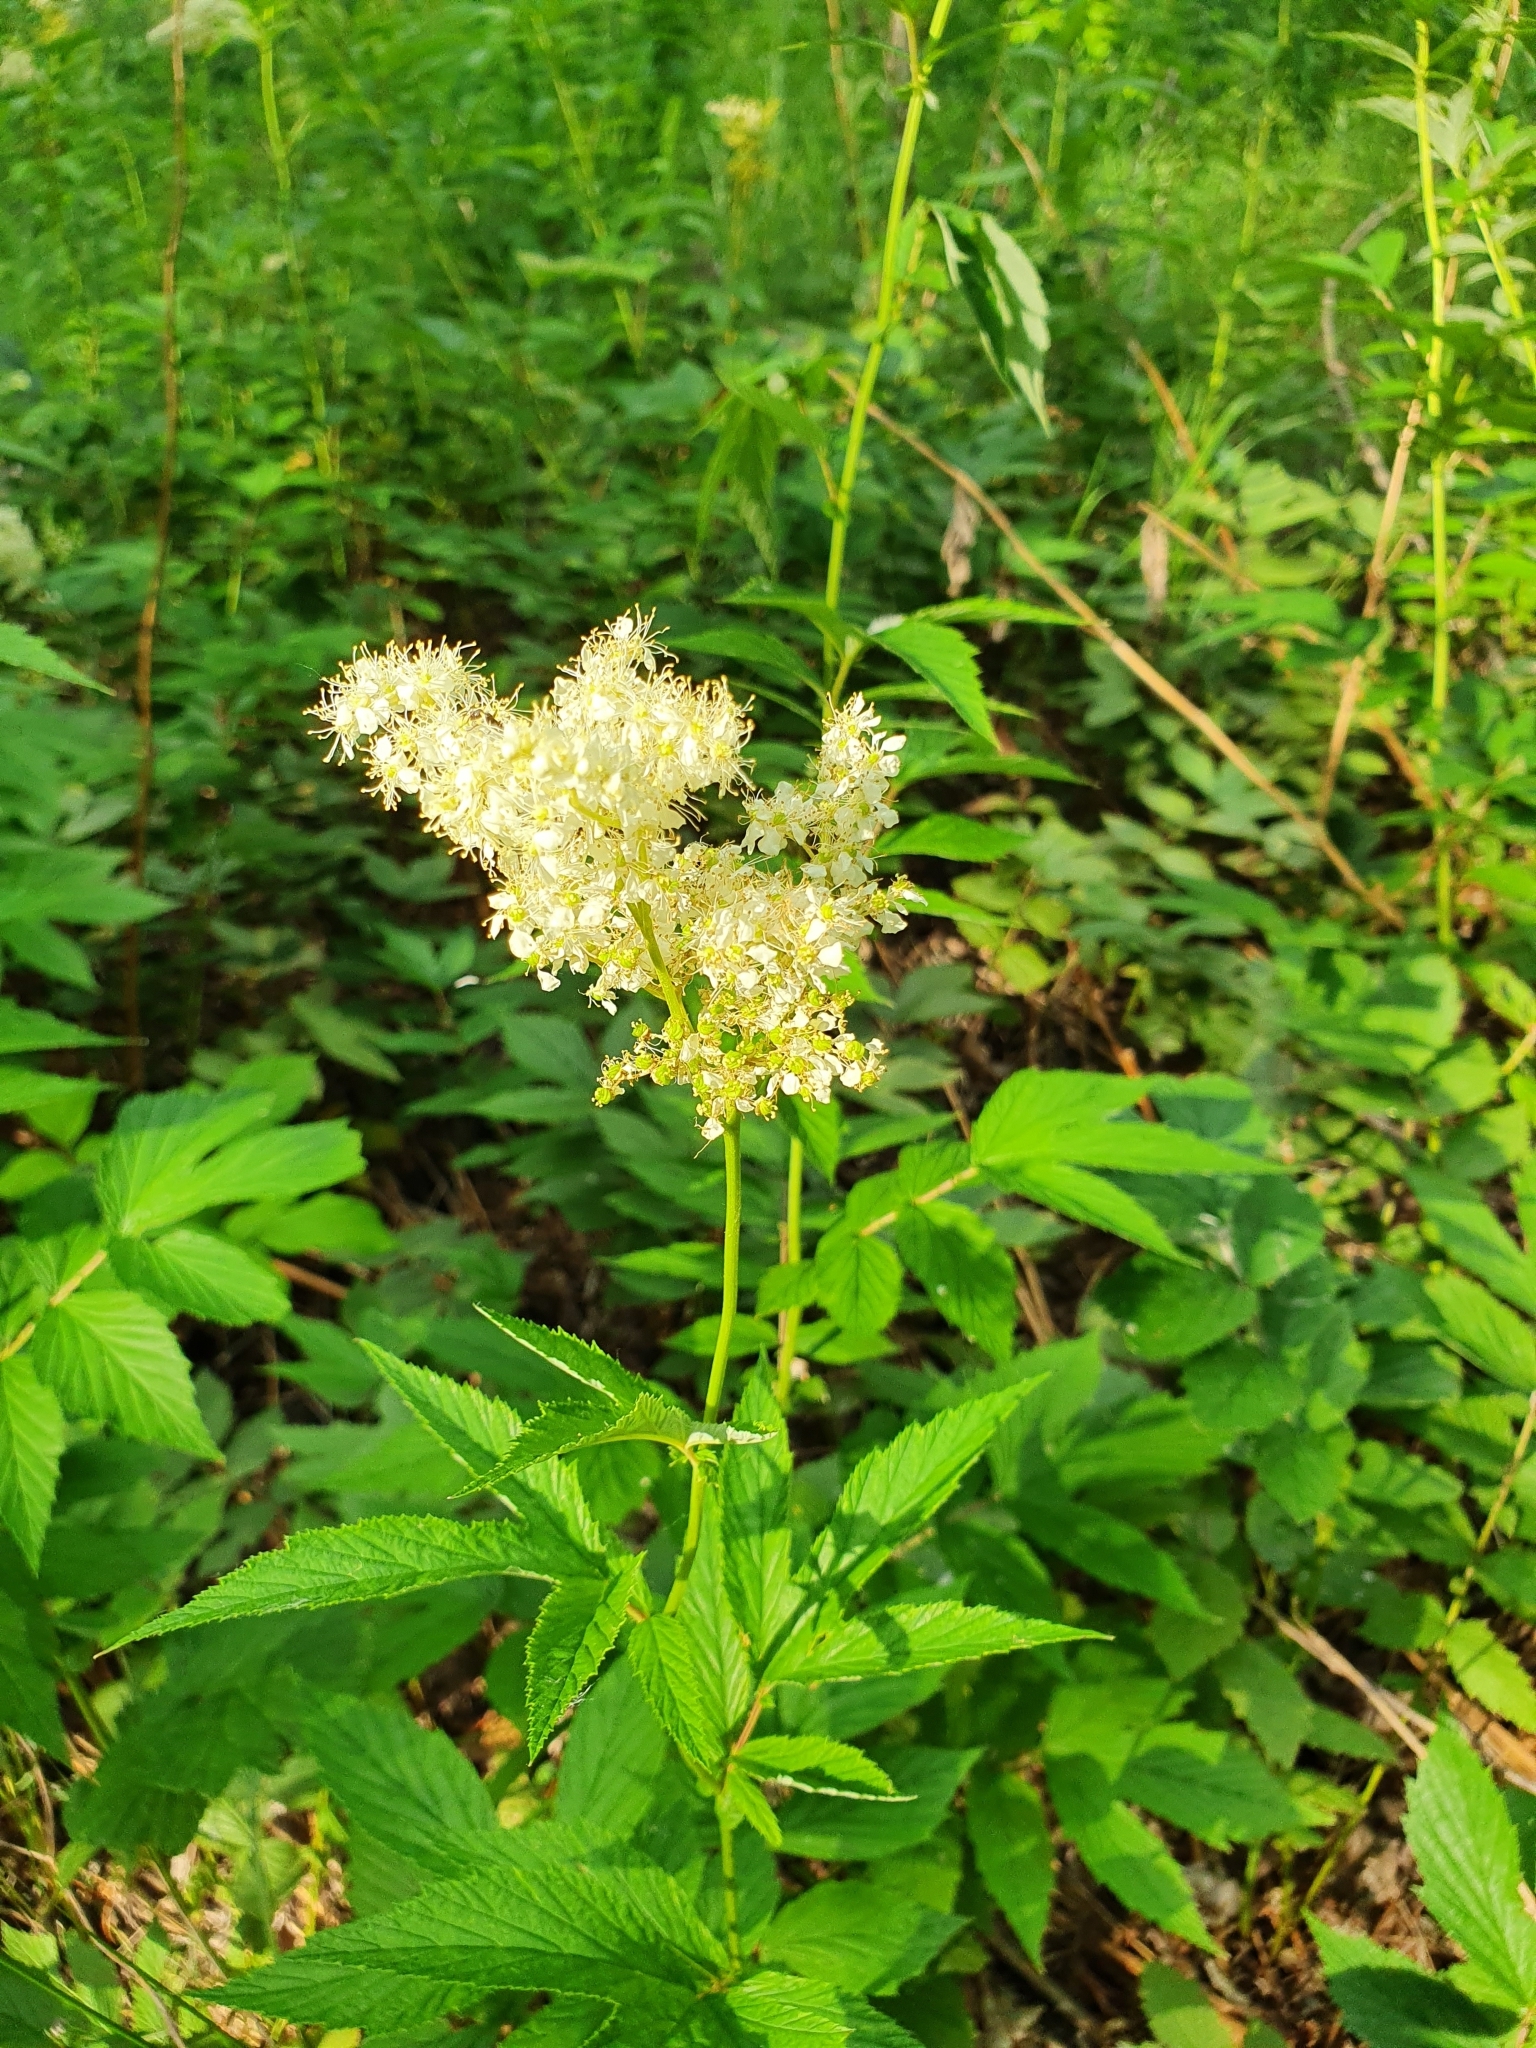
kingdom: Plantae
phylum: Tracheophyta
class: Magnoliopsida
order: Rosales
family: Rosaceae
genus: Filipendula
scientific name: Filipendula ulmaria
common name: Meadowsweet
